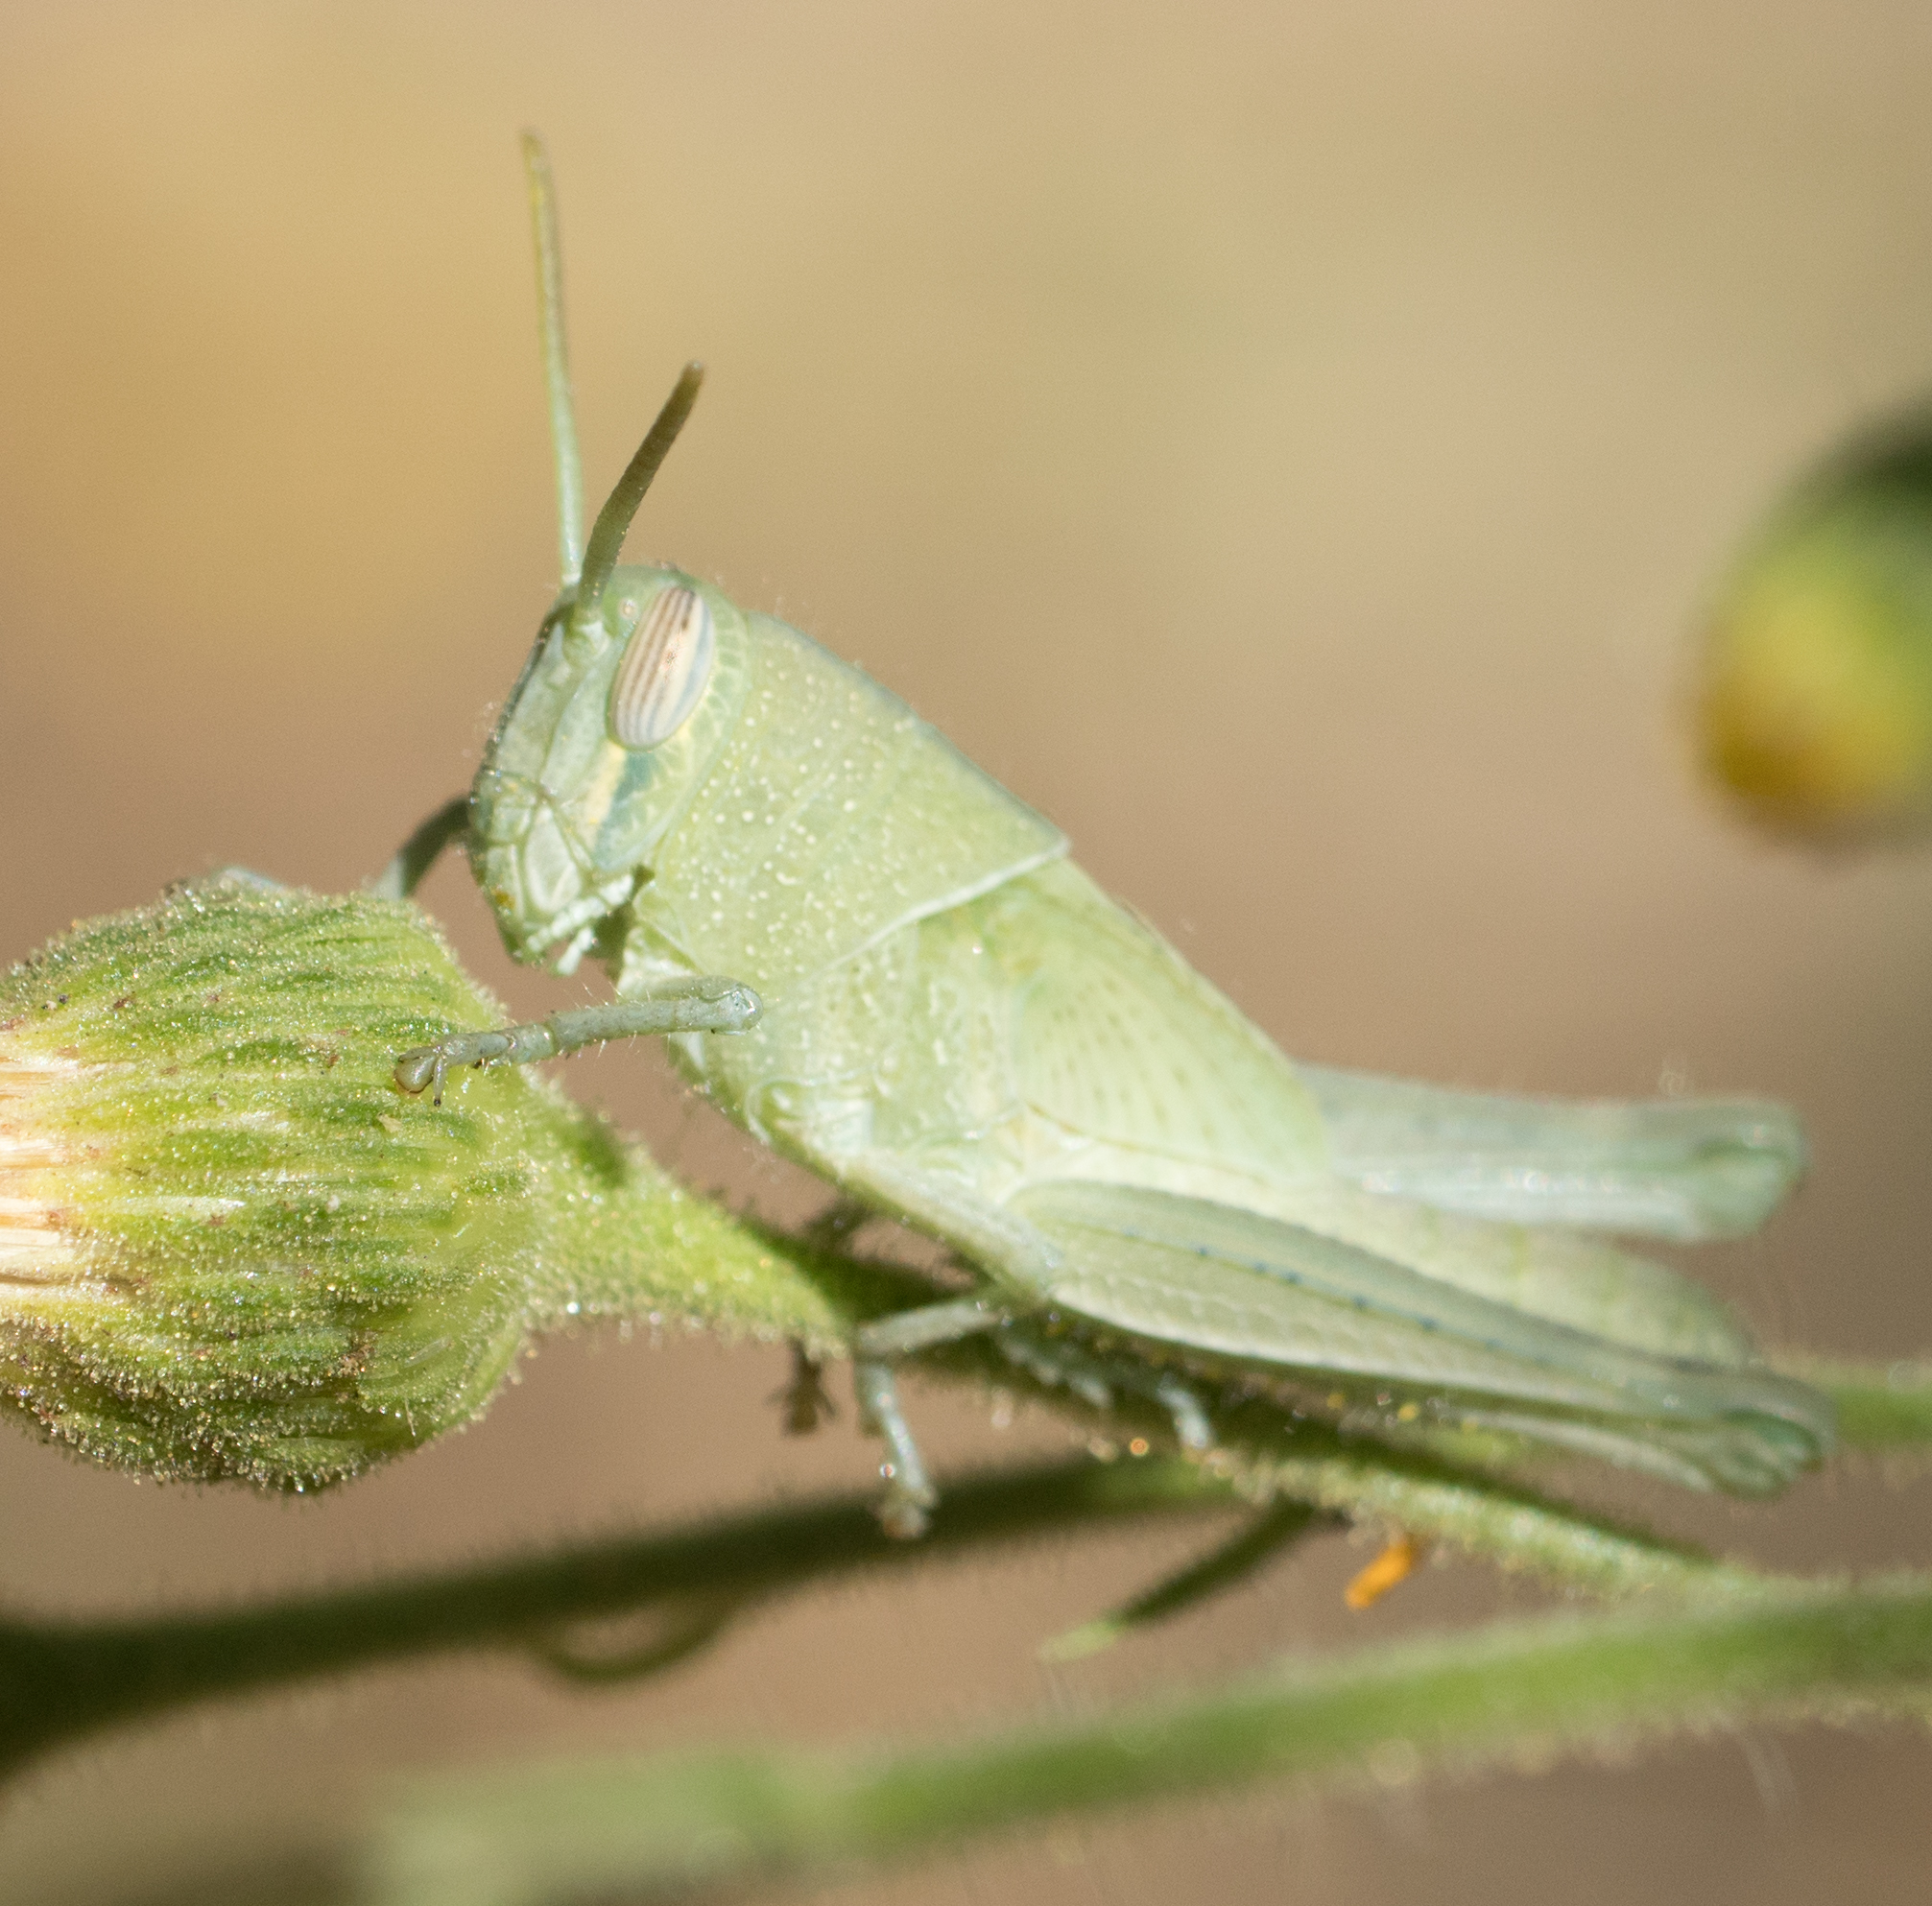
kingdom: Animalia
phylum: Arthropoda
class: Insecta
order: Orthoptera
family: Acrididae
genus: Schistocerca
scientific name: Schistocerca nitens
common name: Vagrant grasshopper
